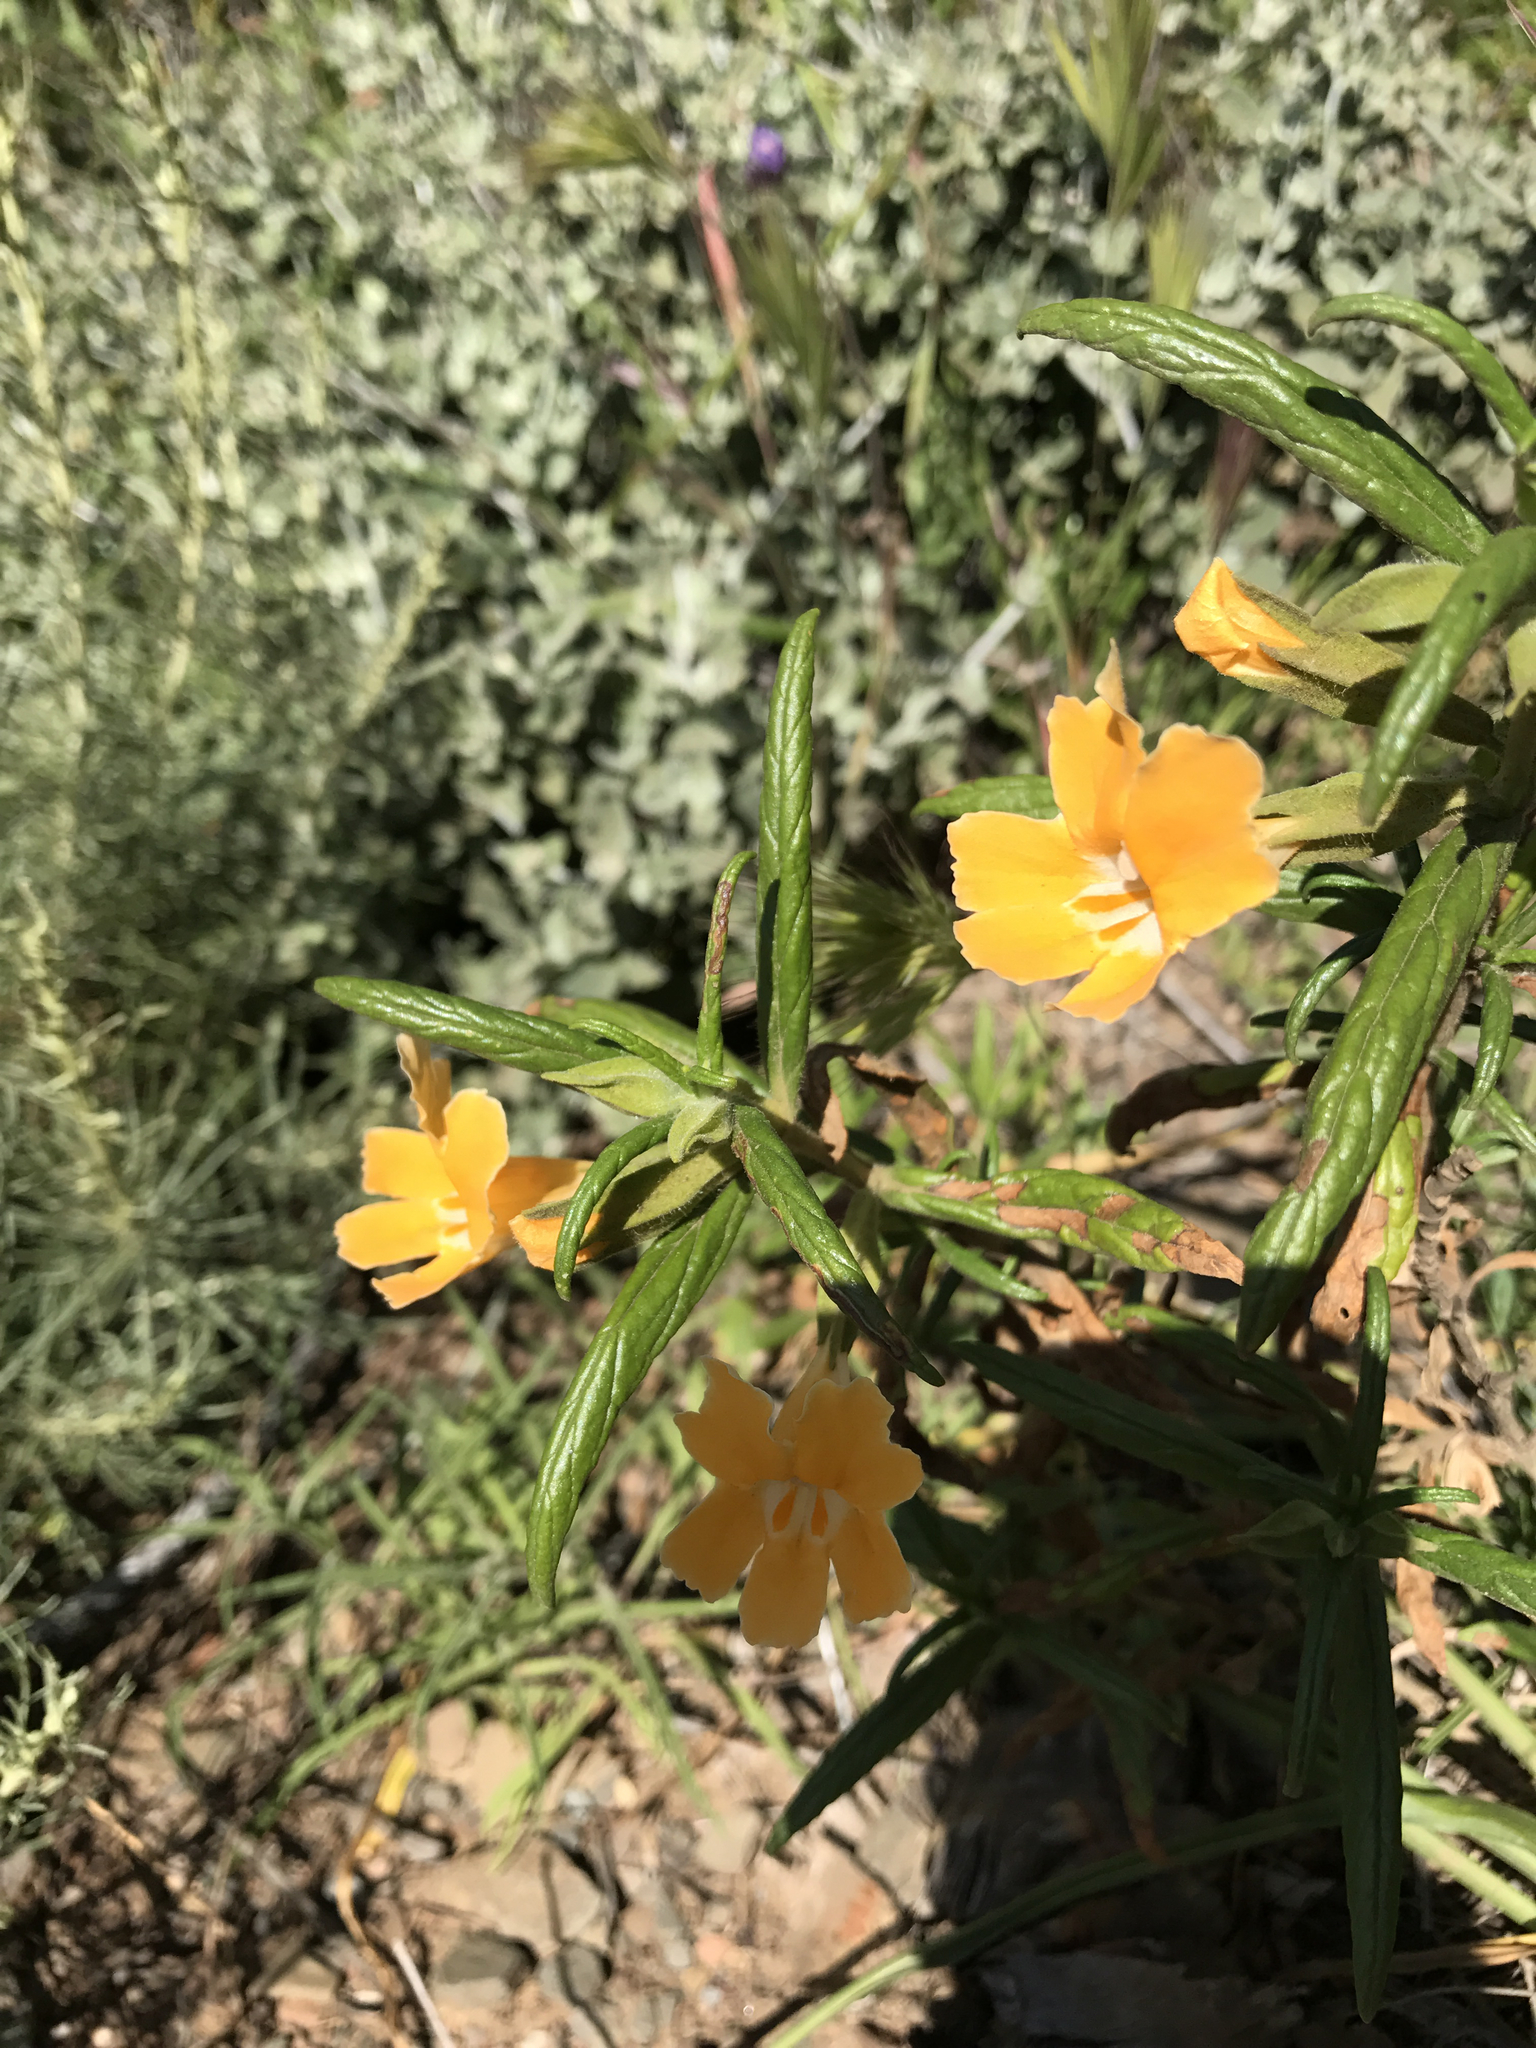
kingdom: Plantae
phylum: Tracheophyta
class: Magnoliopsida
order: Lamiales
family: Phrymaceae
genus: Diplacus
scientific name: Diplacus longiflorus
